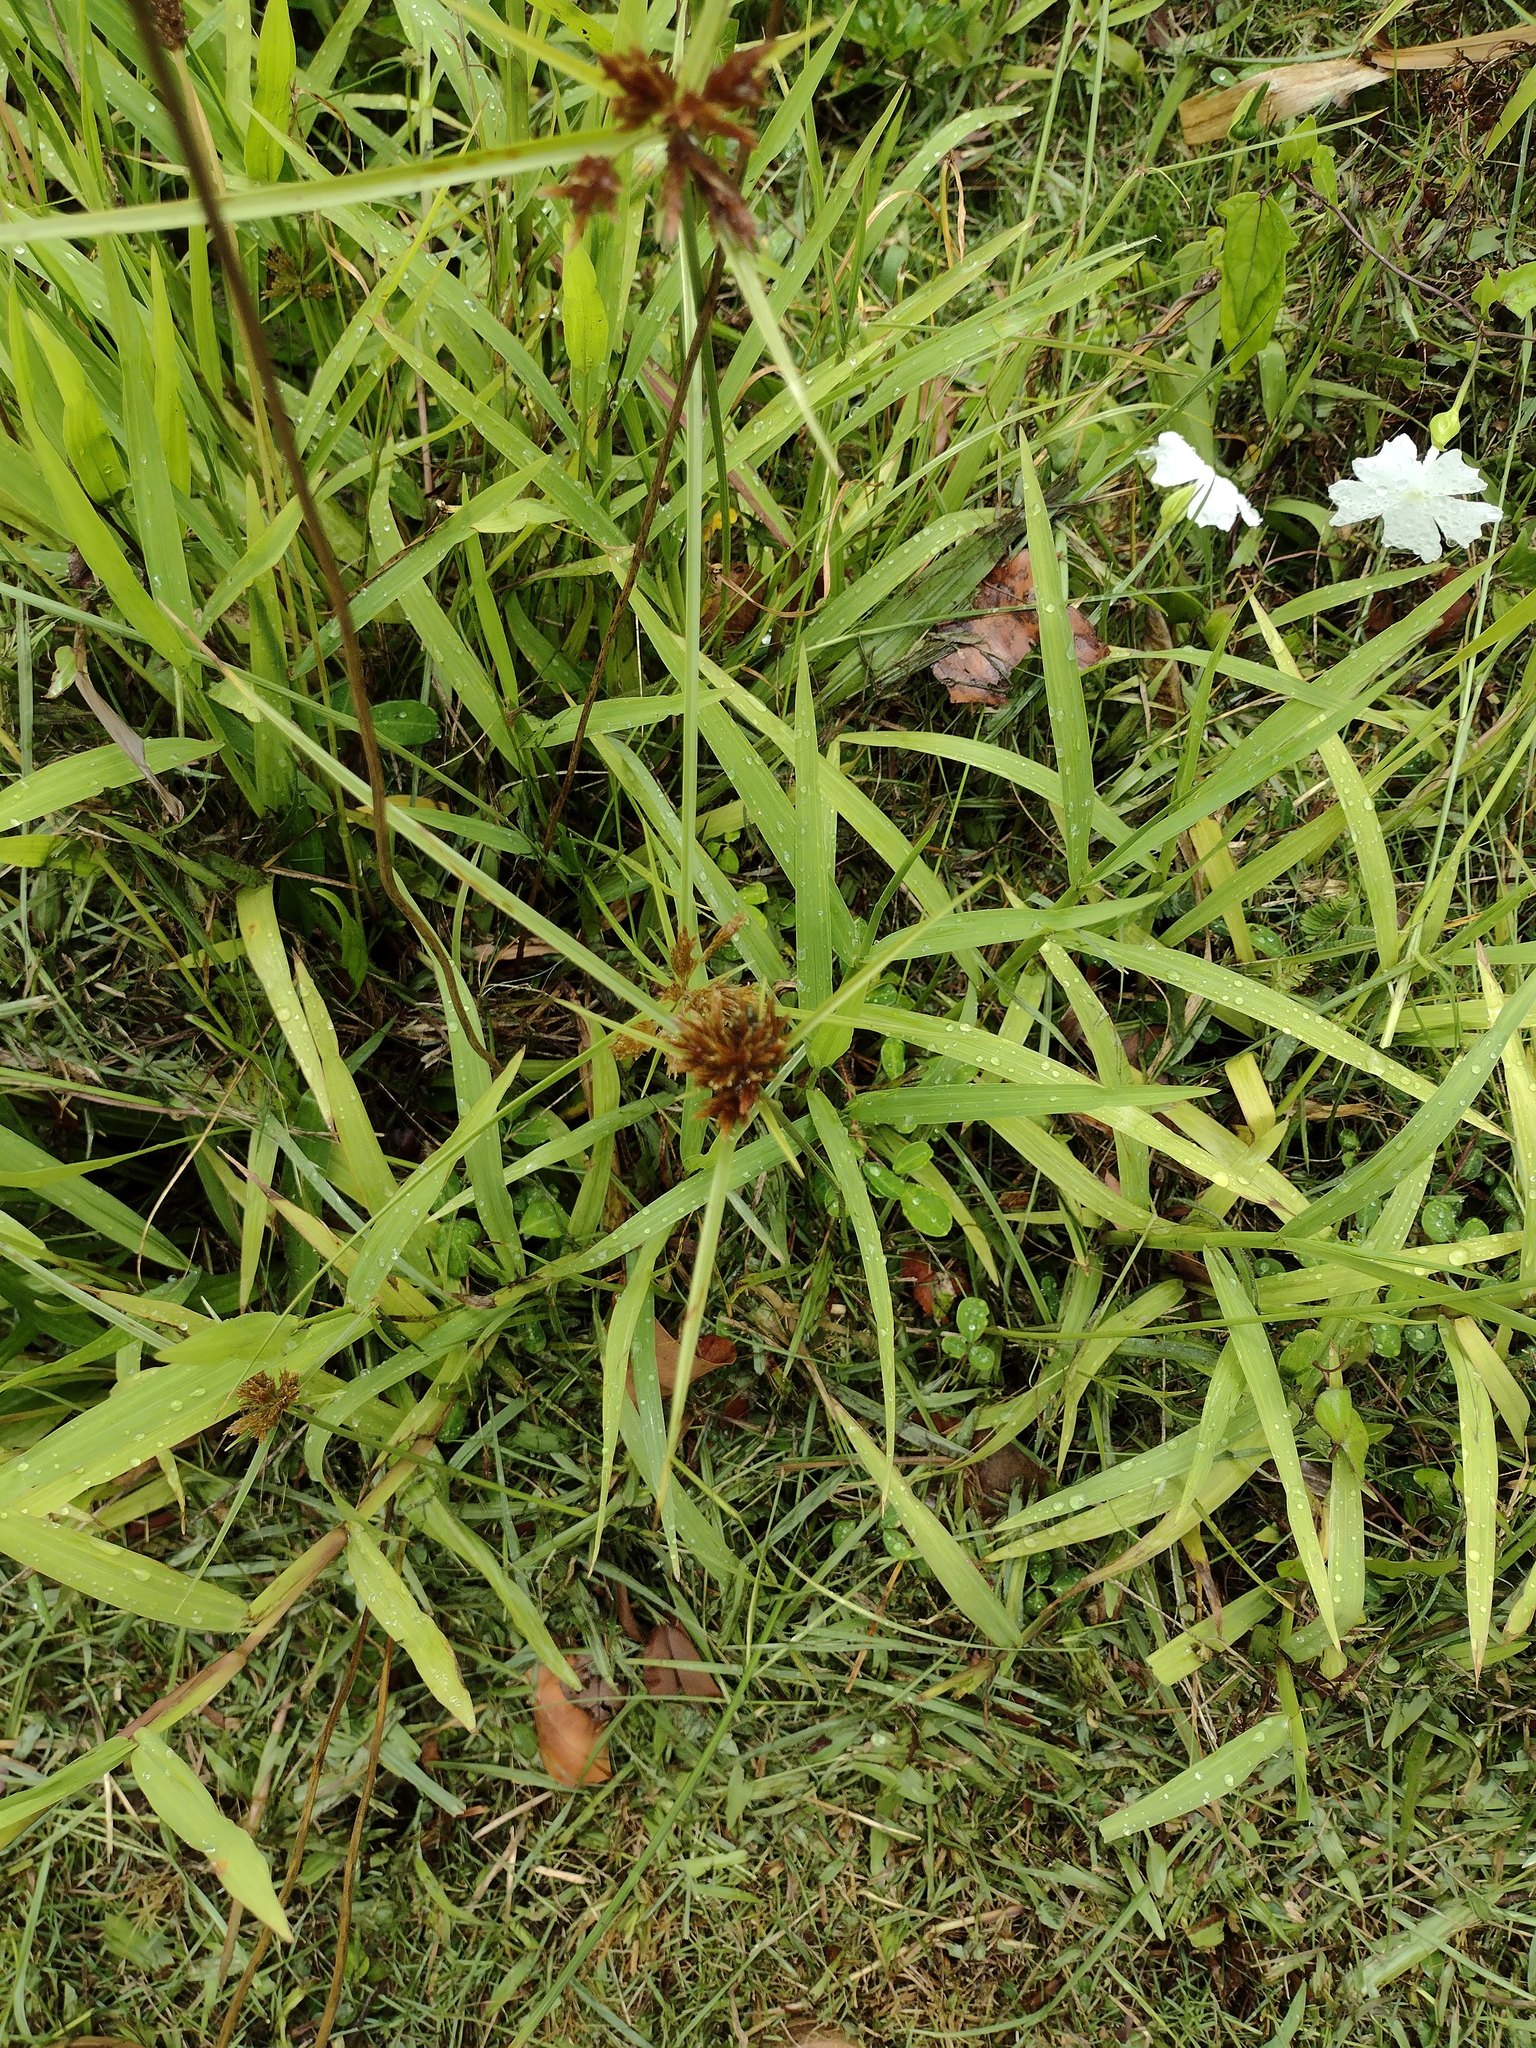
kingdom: Plantae
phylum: Tracheophyta
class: Liliopsida
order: Poales
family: Cyperaceae
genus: Cyperus
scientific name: Cyperus polystachyos
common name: Bunchy flat sedge
